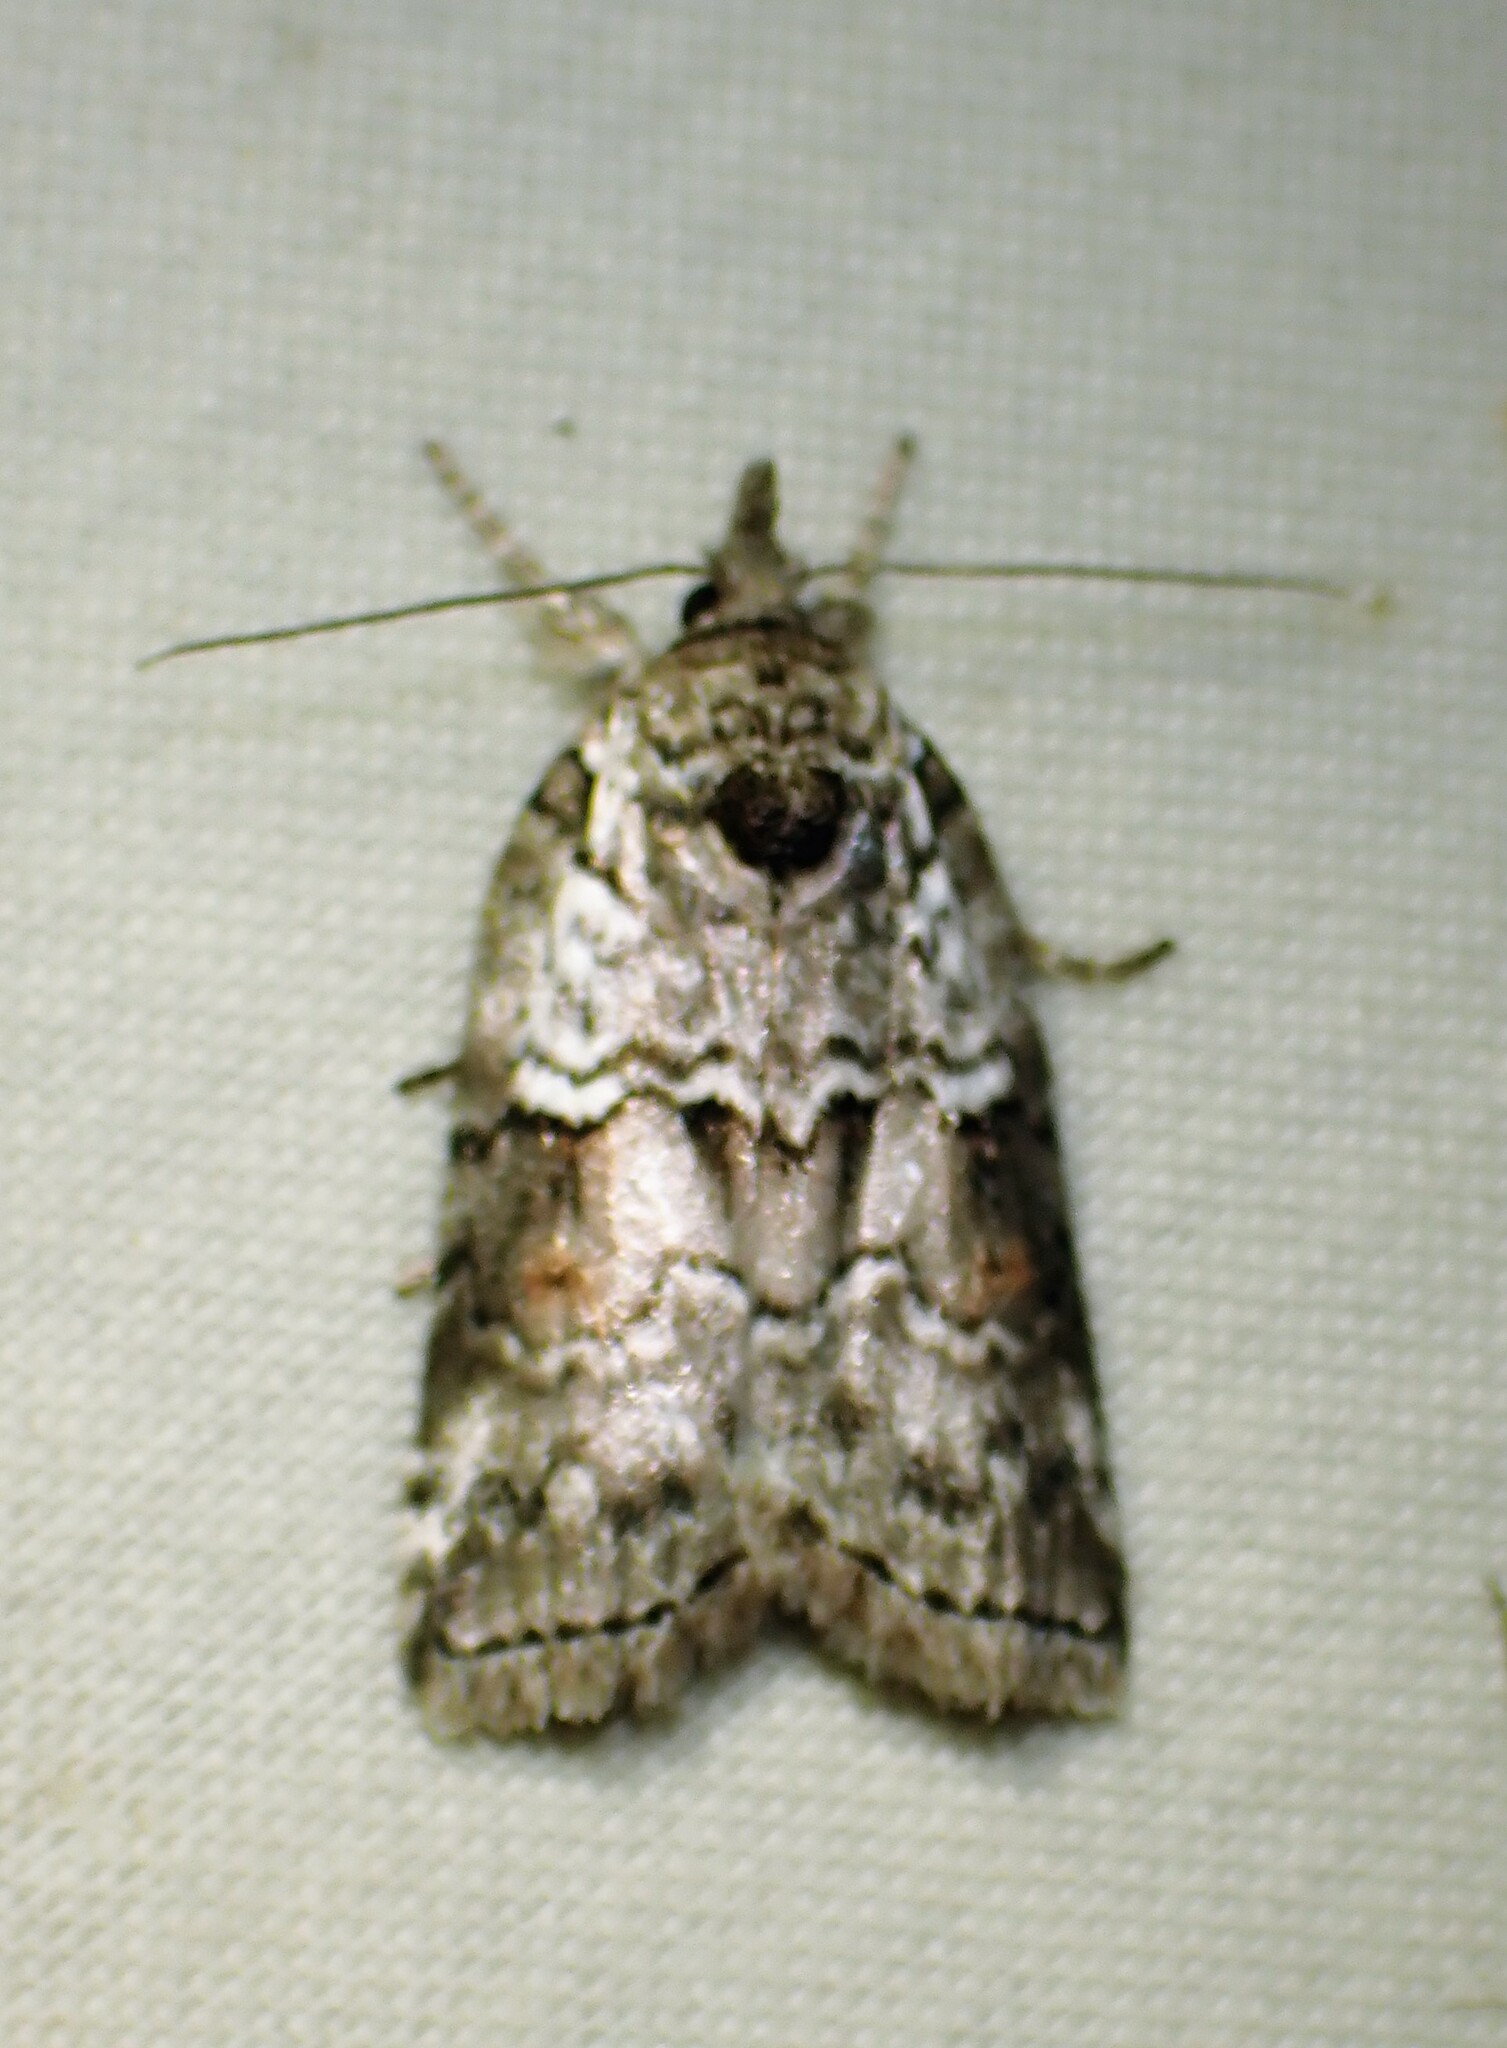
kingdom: Animalia
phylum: Arthropoda
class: Insecta
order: Lepidoptera
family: Nolidae
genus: Nycteola
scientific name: Nycteola frigidana
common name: Frigid owlet
